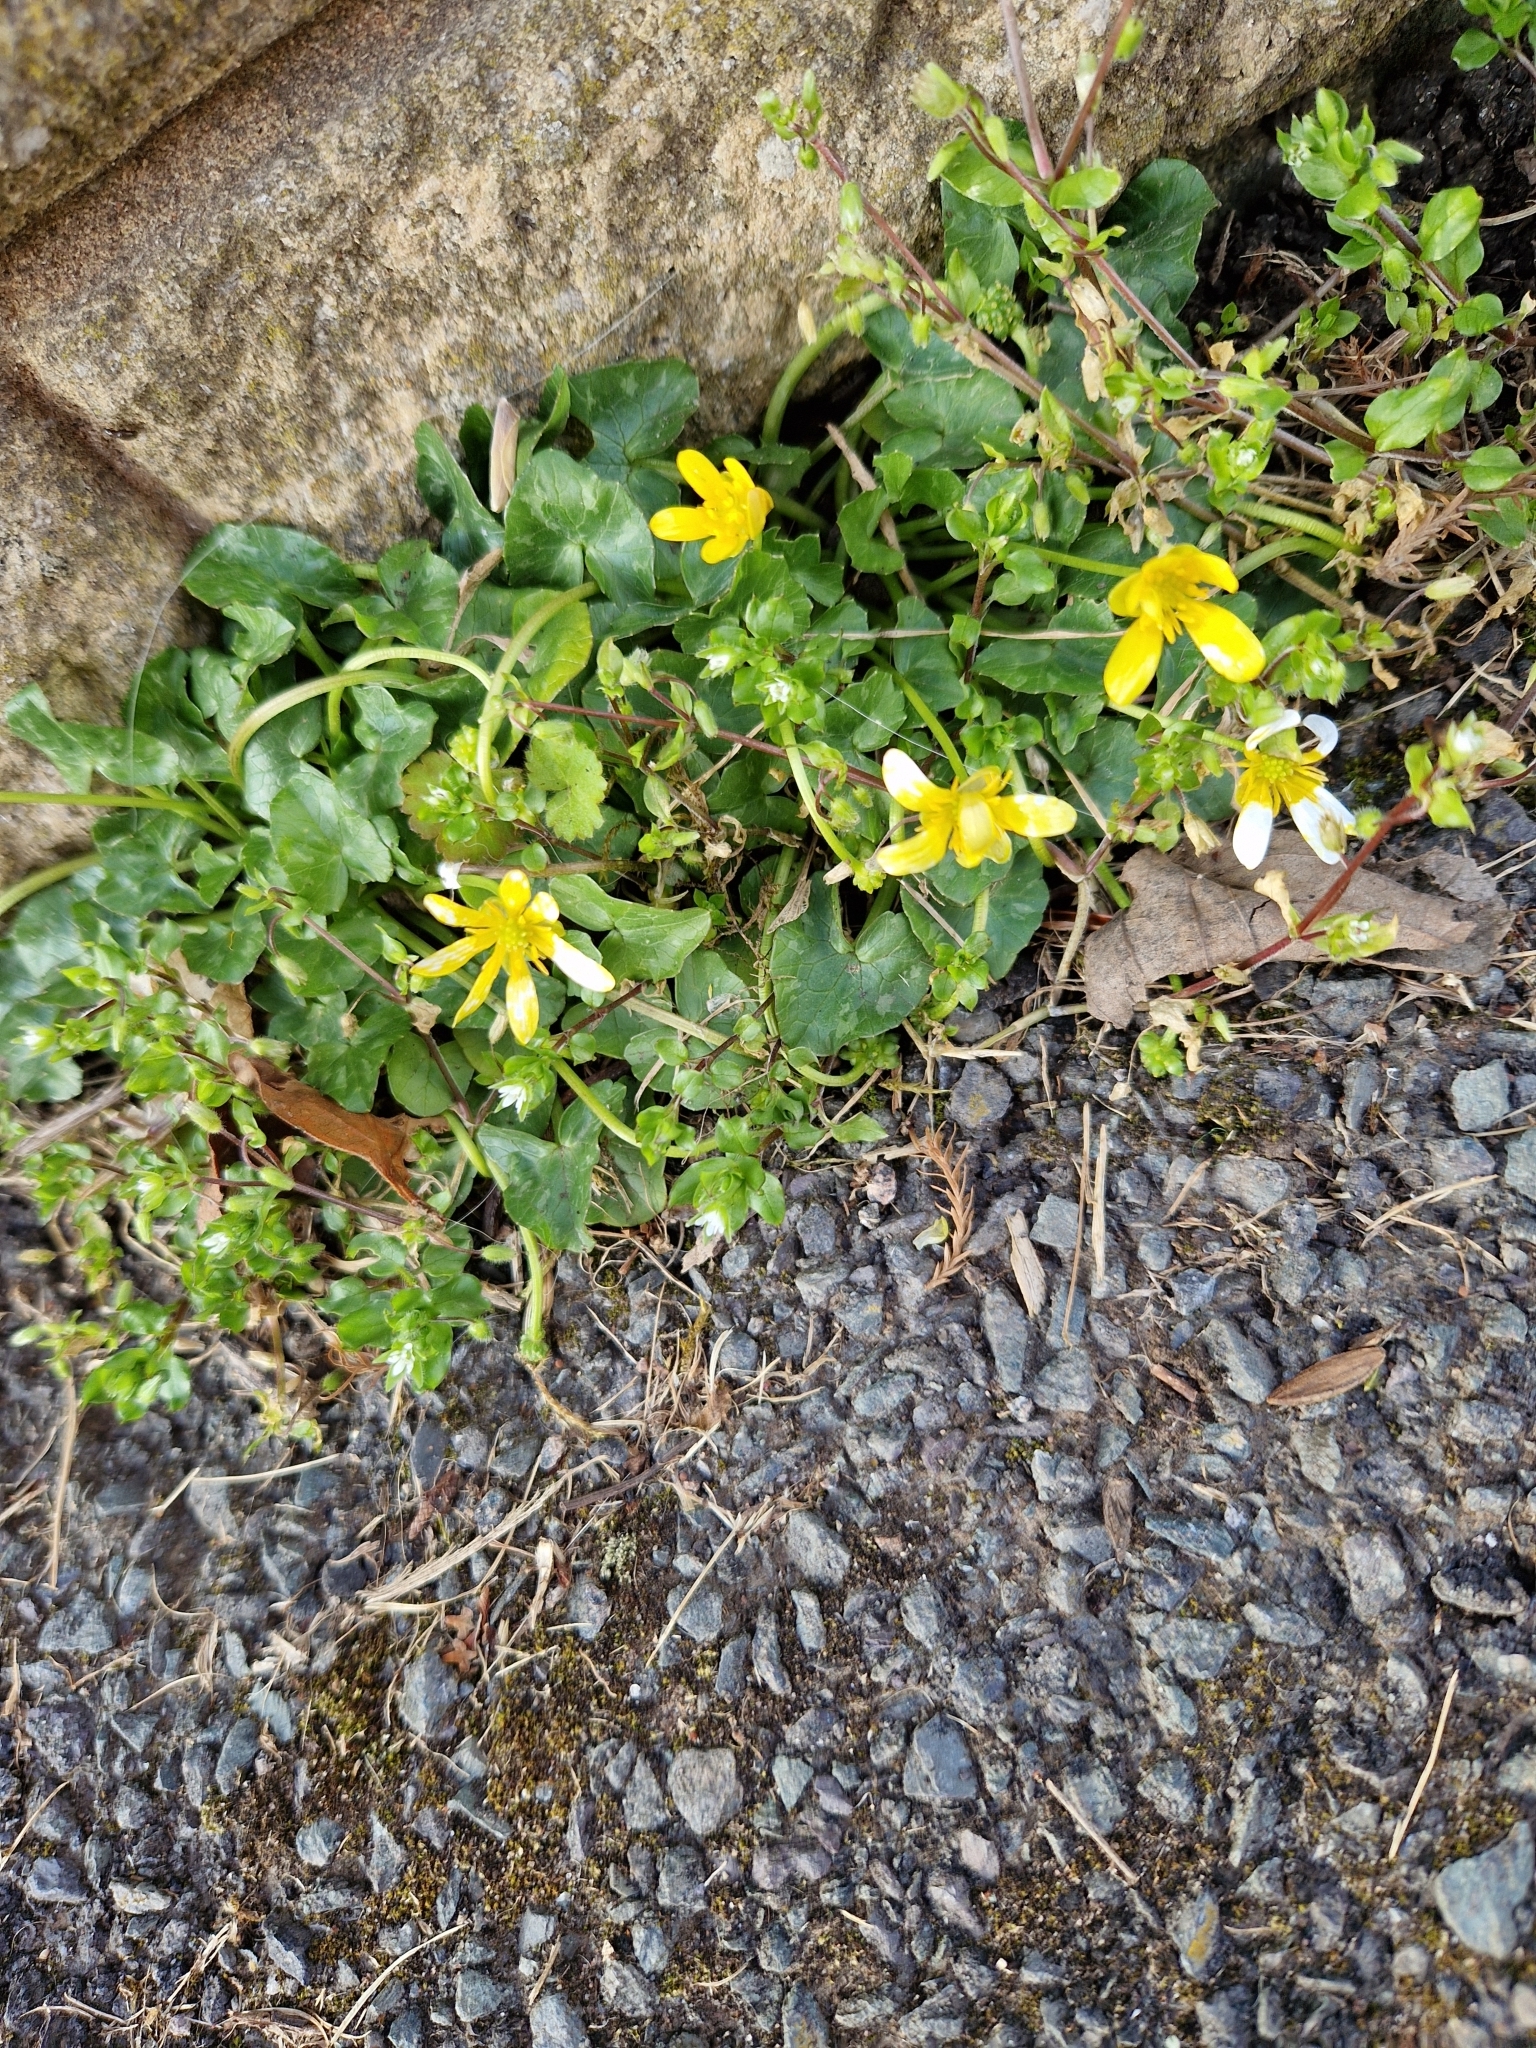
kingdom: Plantae
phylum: Tracheophyta
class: Magnoliopsida
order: Ranunculales
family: Ranunculaceae
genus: Ficaria
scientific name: Ficaria verna
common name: Lesser celandine
